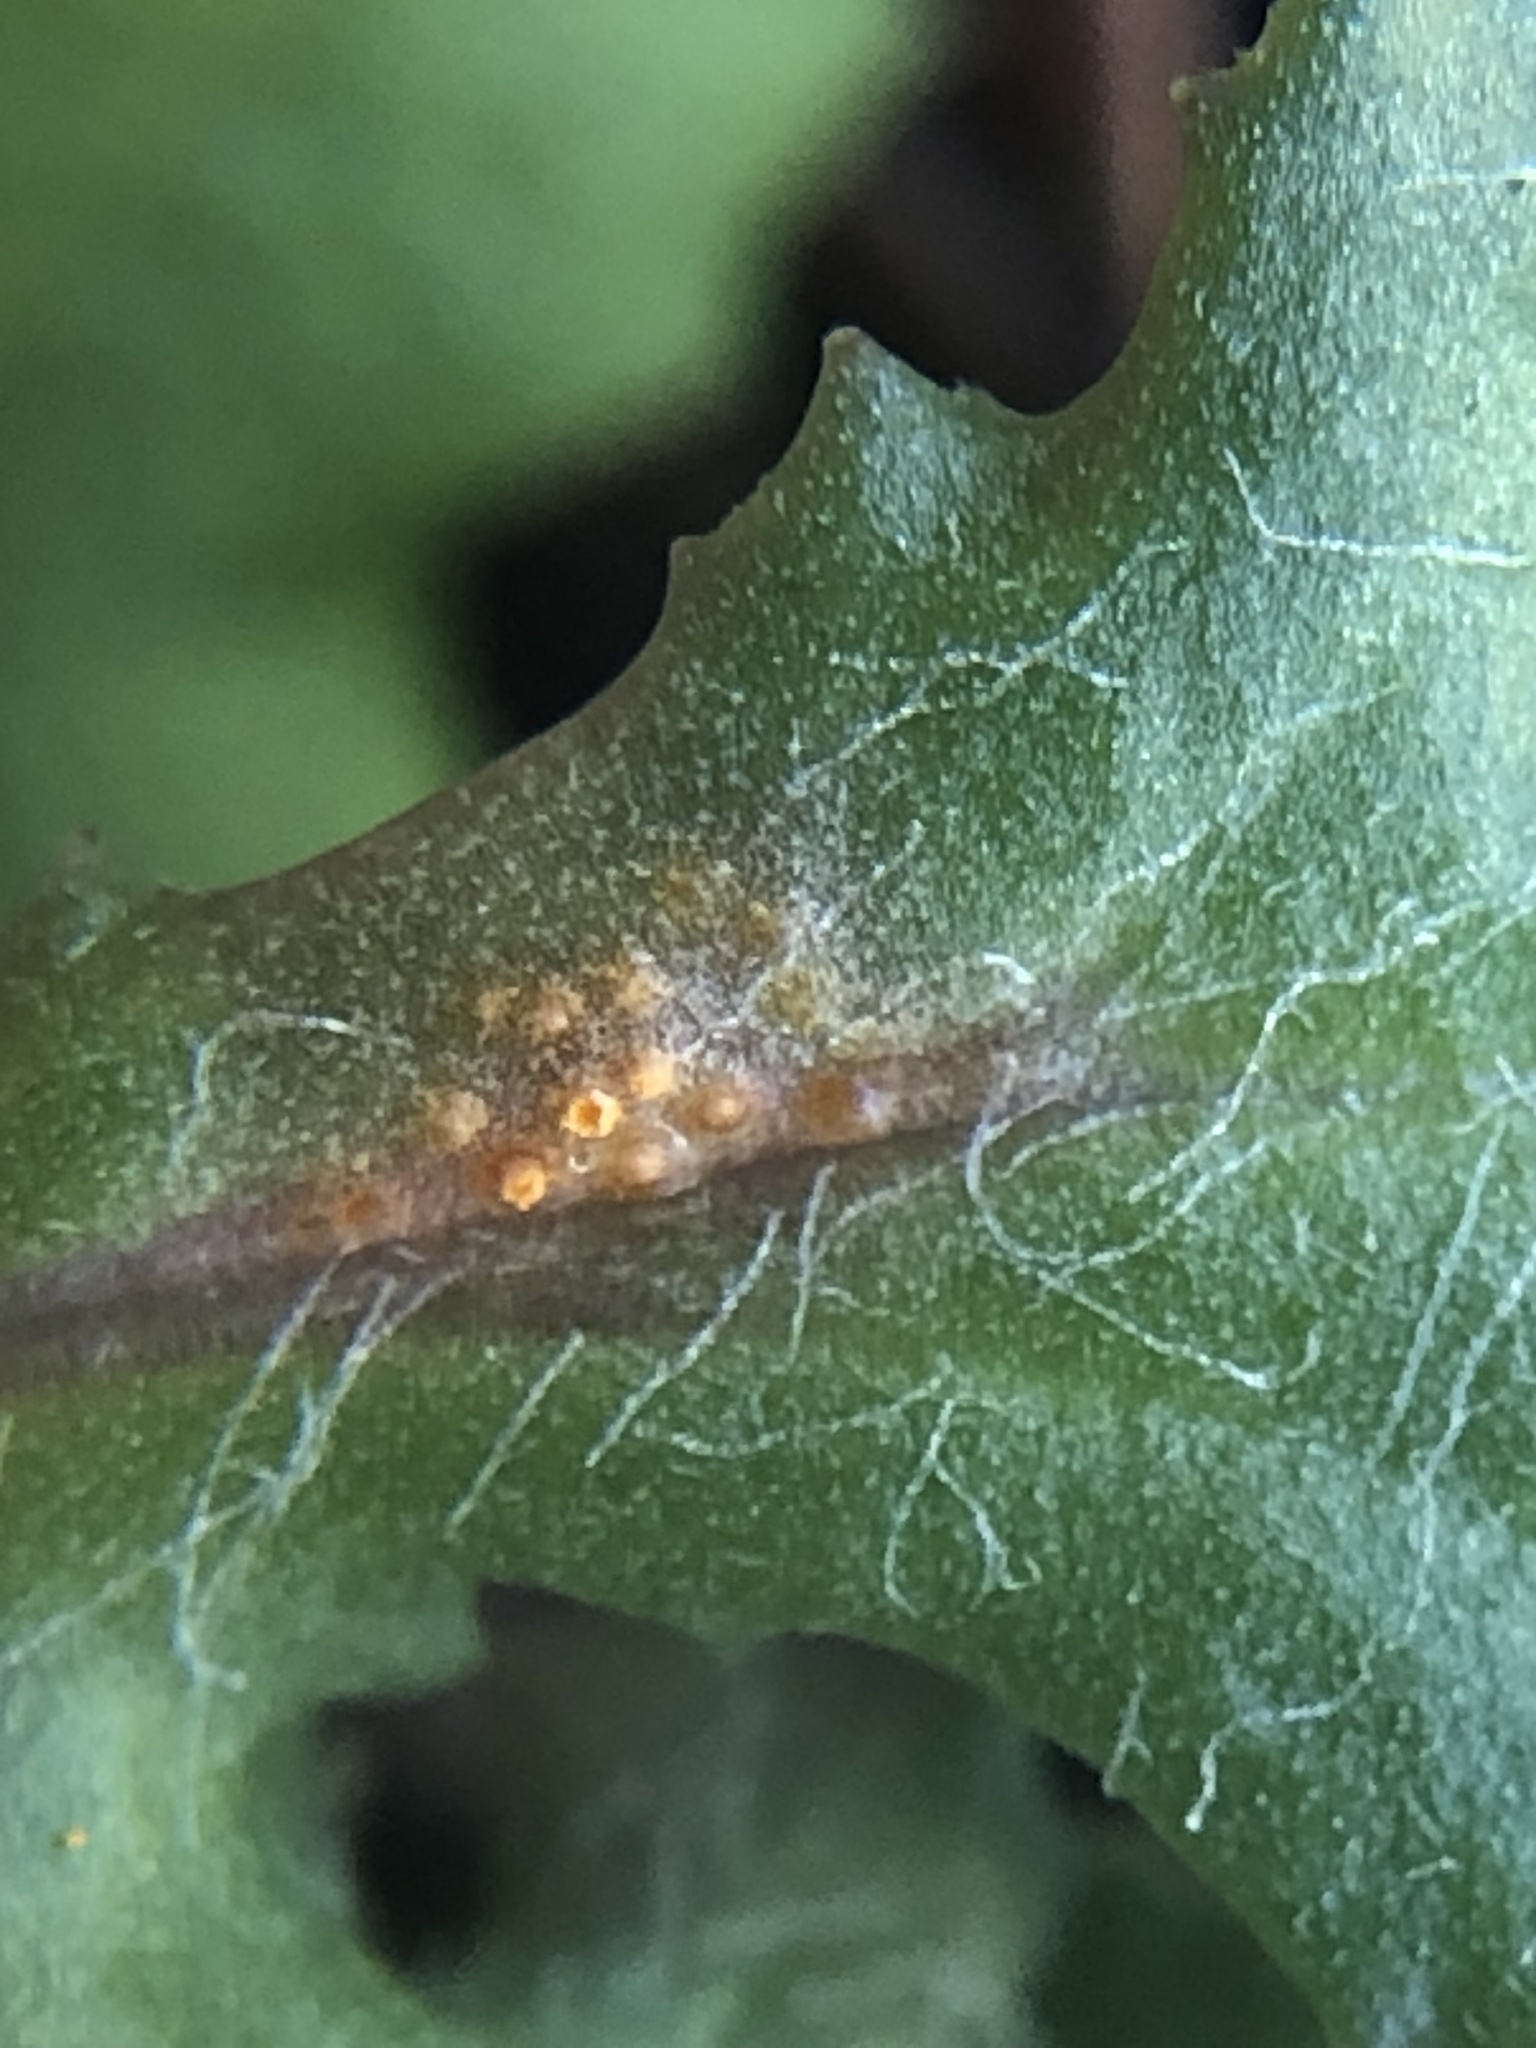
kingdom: Fungi
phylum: Basidiomycota
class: Pucciniomycetes
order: Pucciniales
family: Pucciniaceae
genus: Puccinia
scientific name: Puccinia lagenophorae
